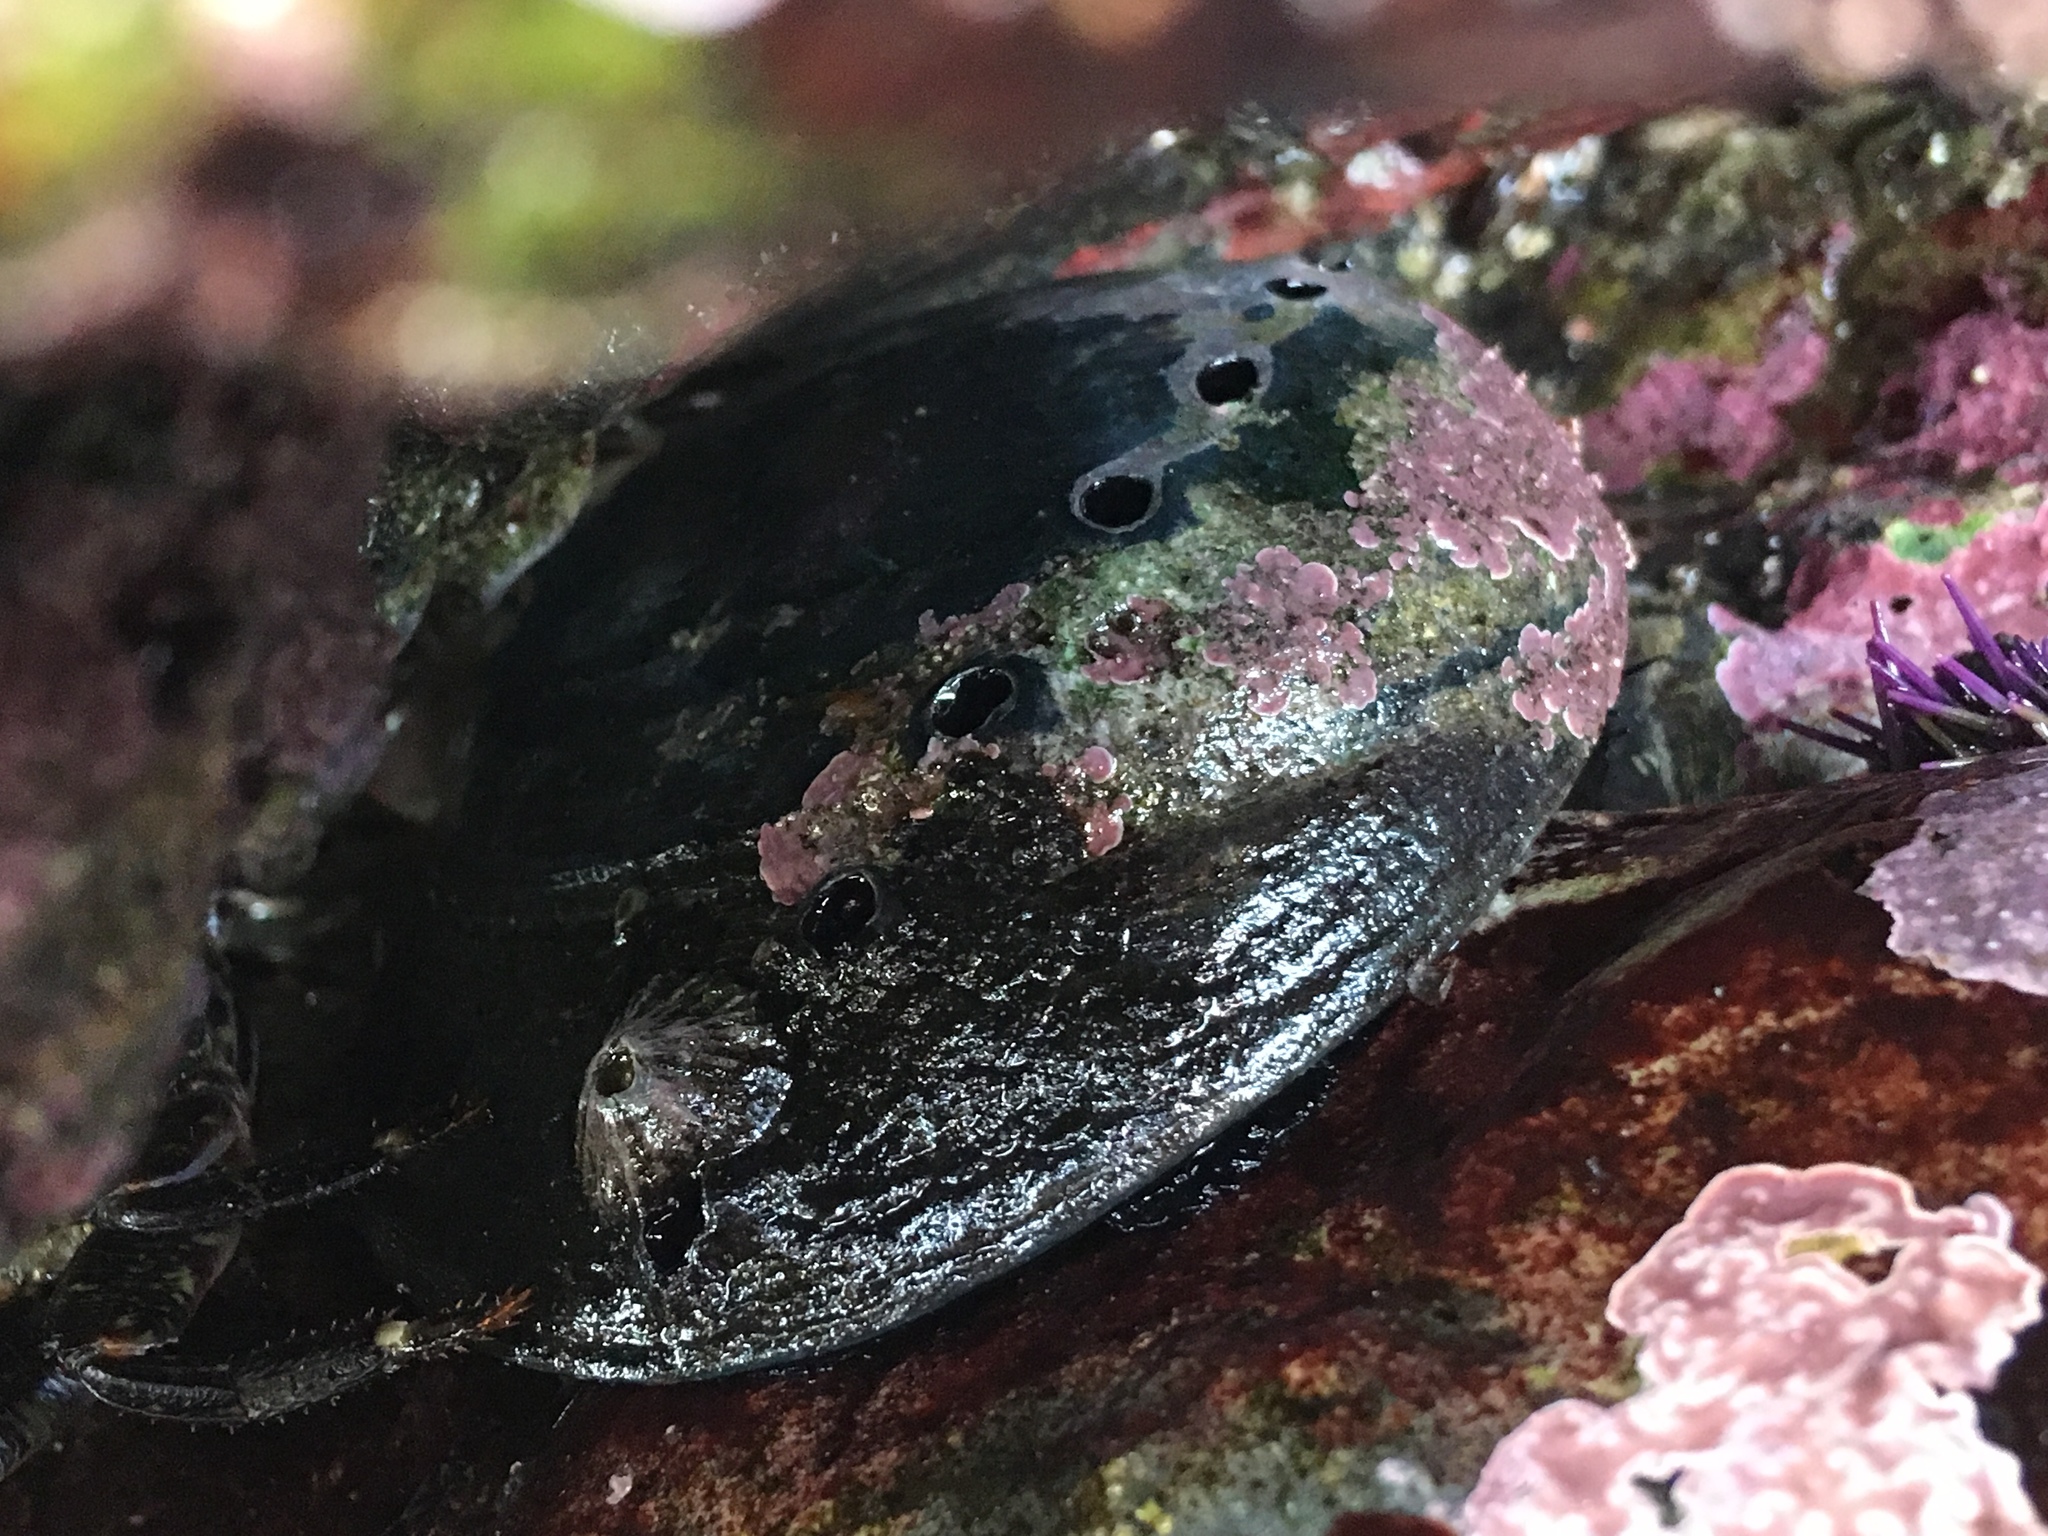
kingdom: Animalia
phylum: Mollusca
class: Gastropoda
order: Lepetellida
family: Haliotidae
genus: Haliotis
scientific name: Haliotis cracherodii
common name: Black abalone
